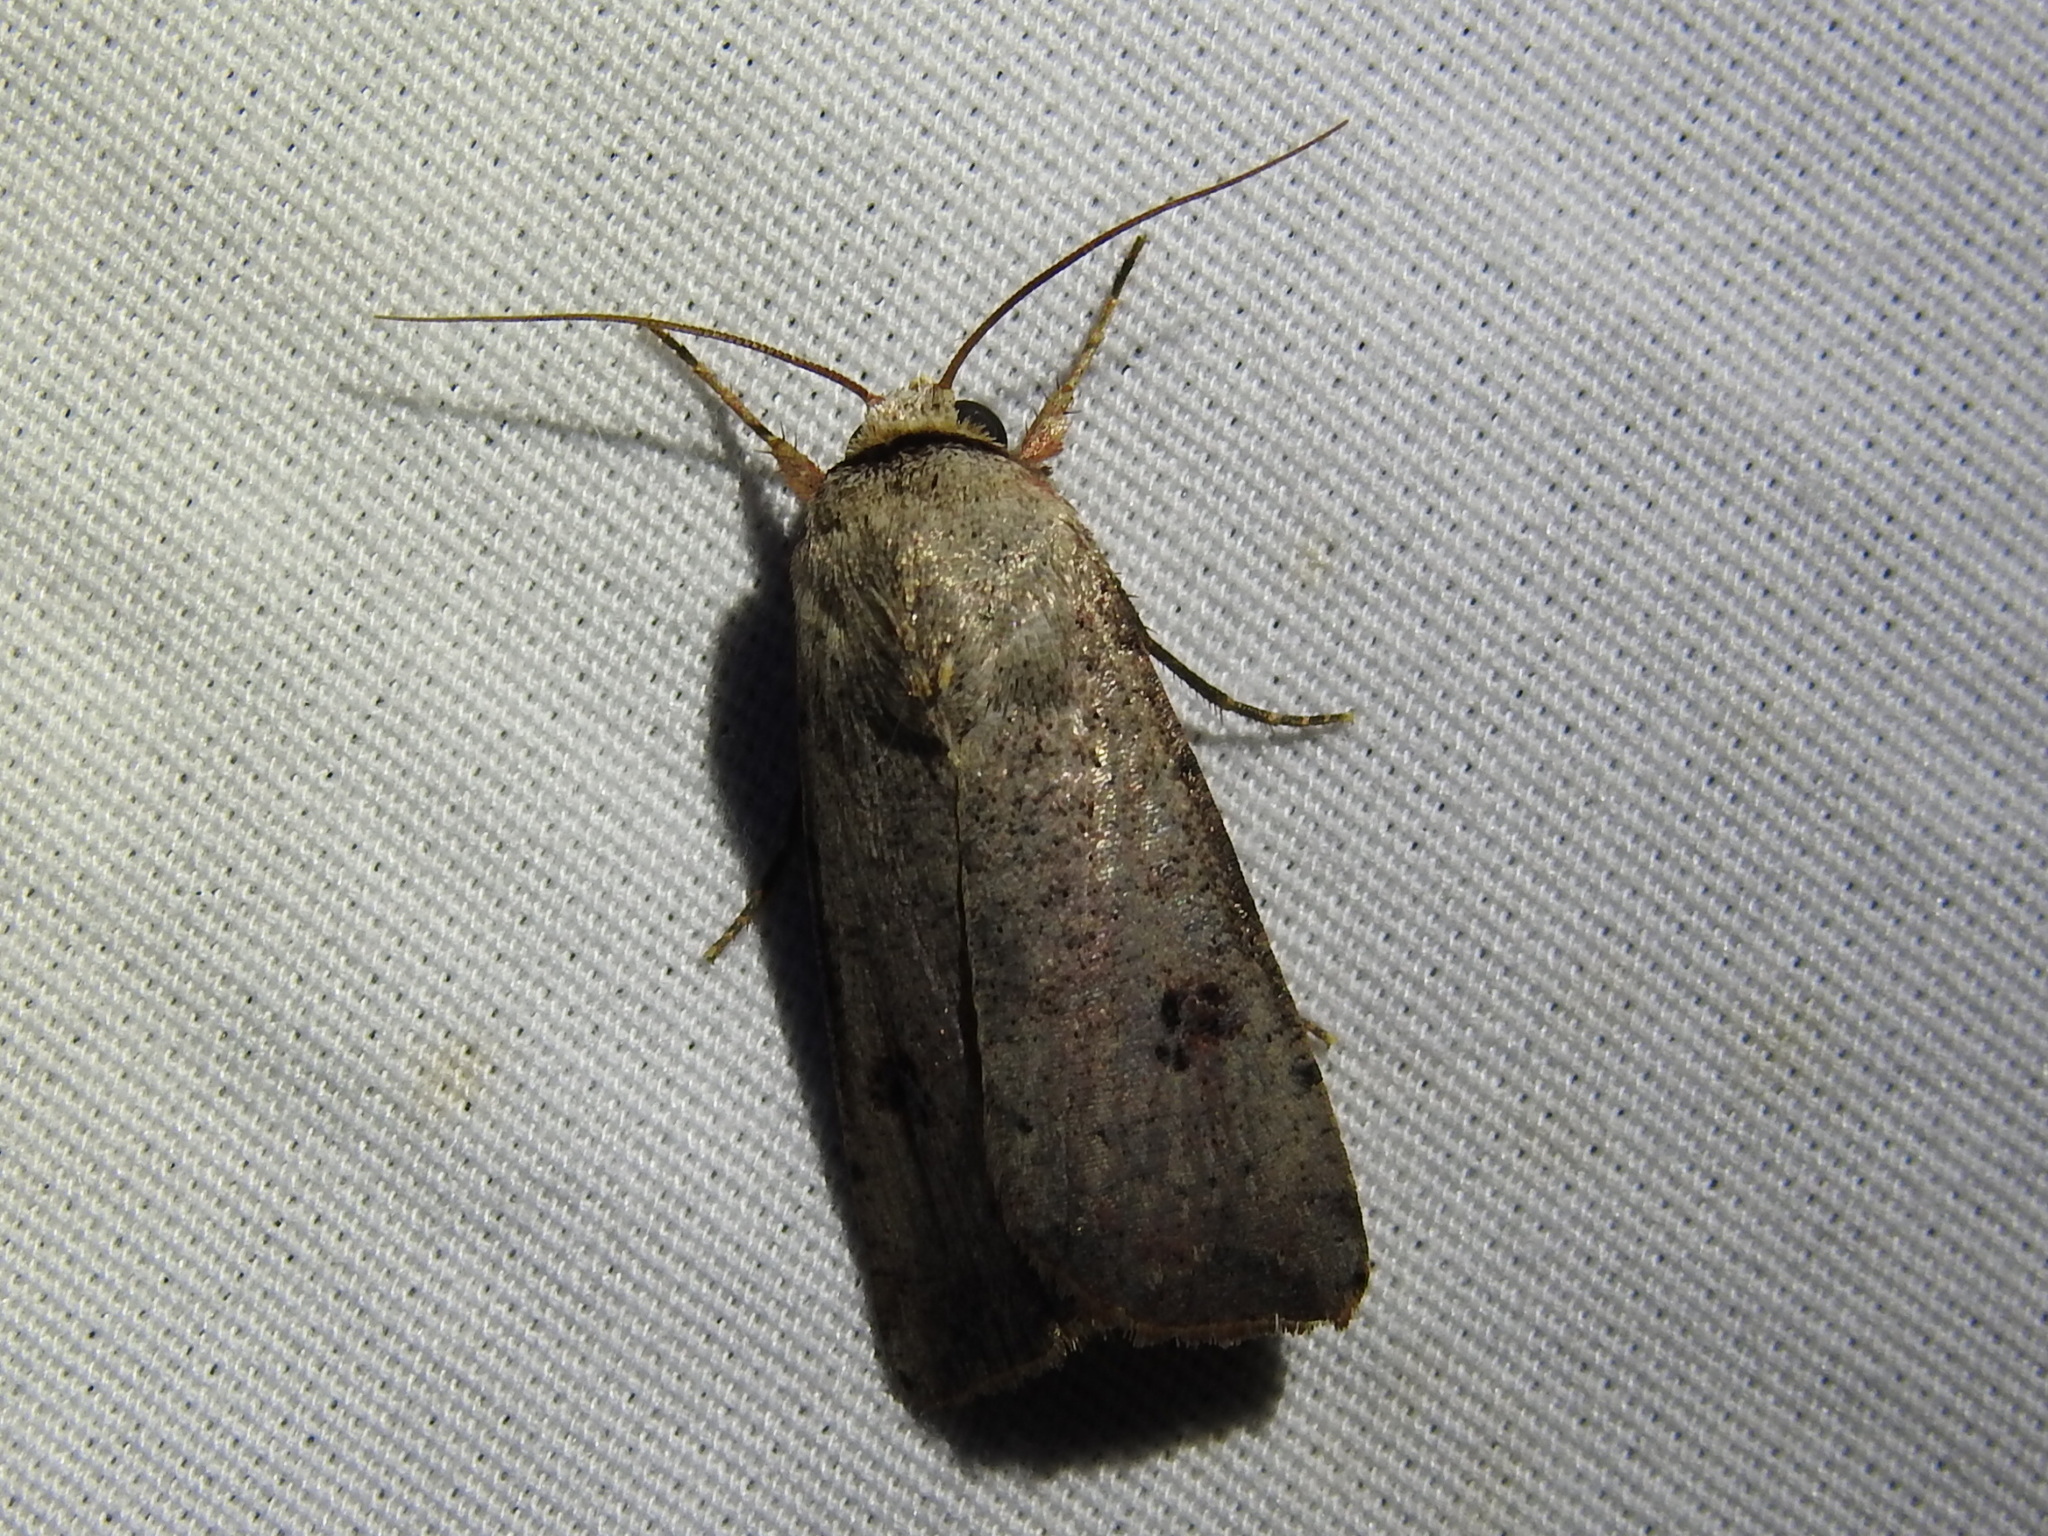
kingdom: Animalia
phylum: Arthropoda
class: Insecta
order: Lepidoptera
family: Noctuidae
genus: Anicla
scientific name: Anicla infecta
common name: Green cutworm
